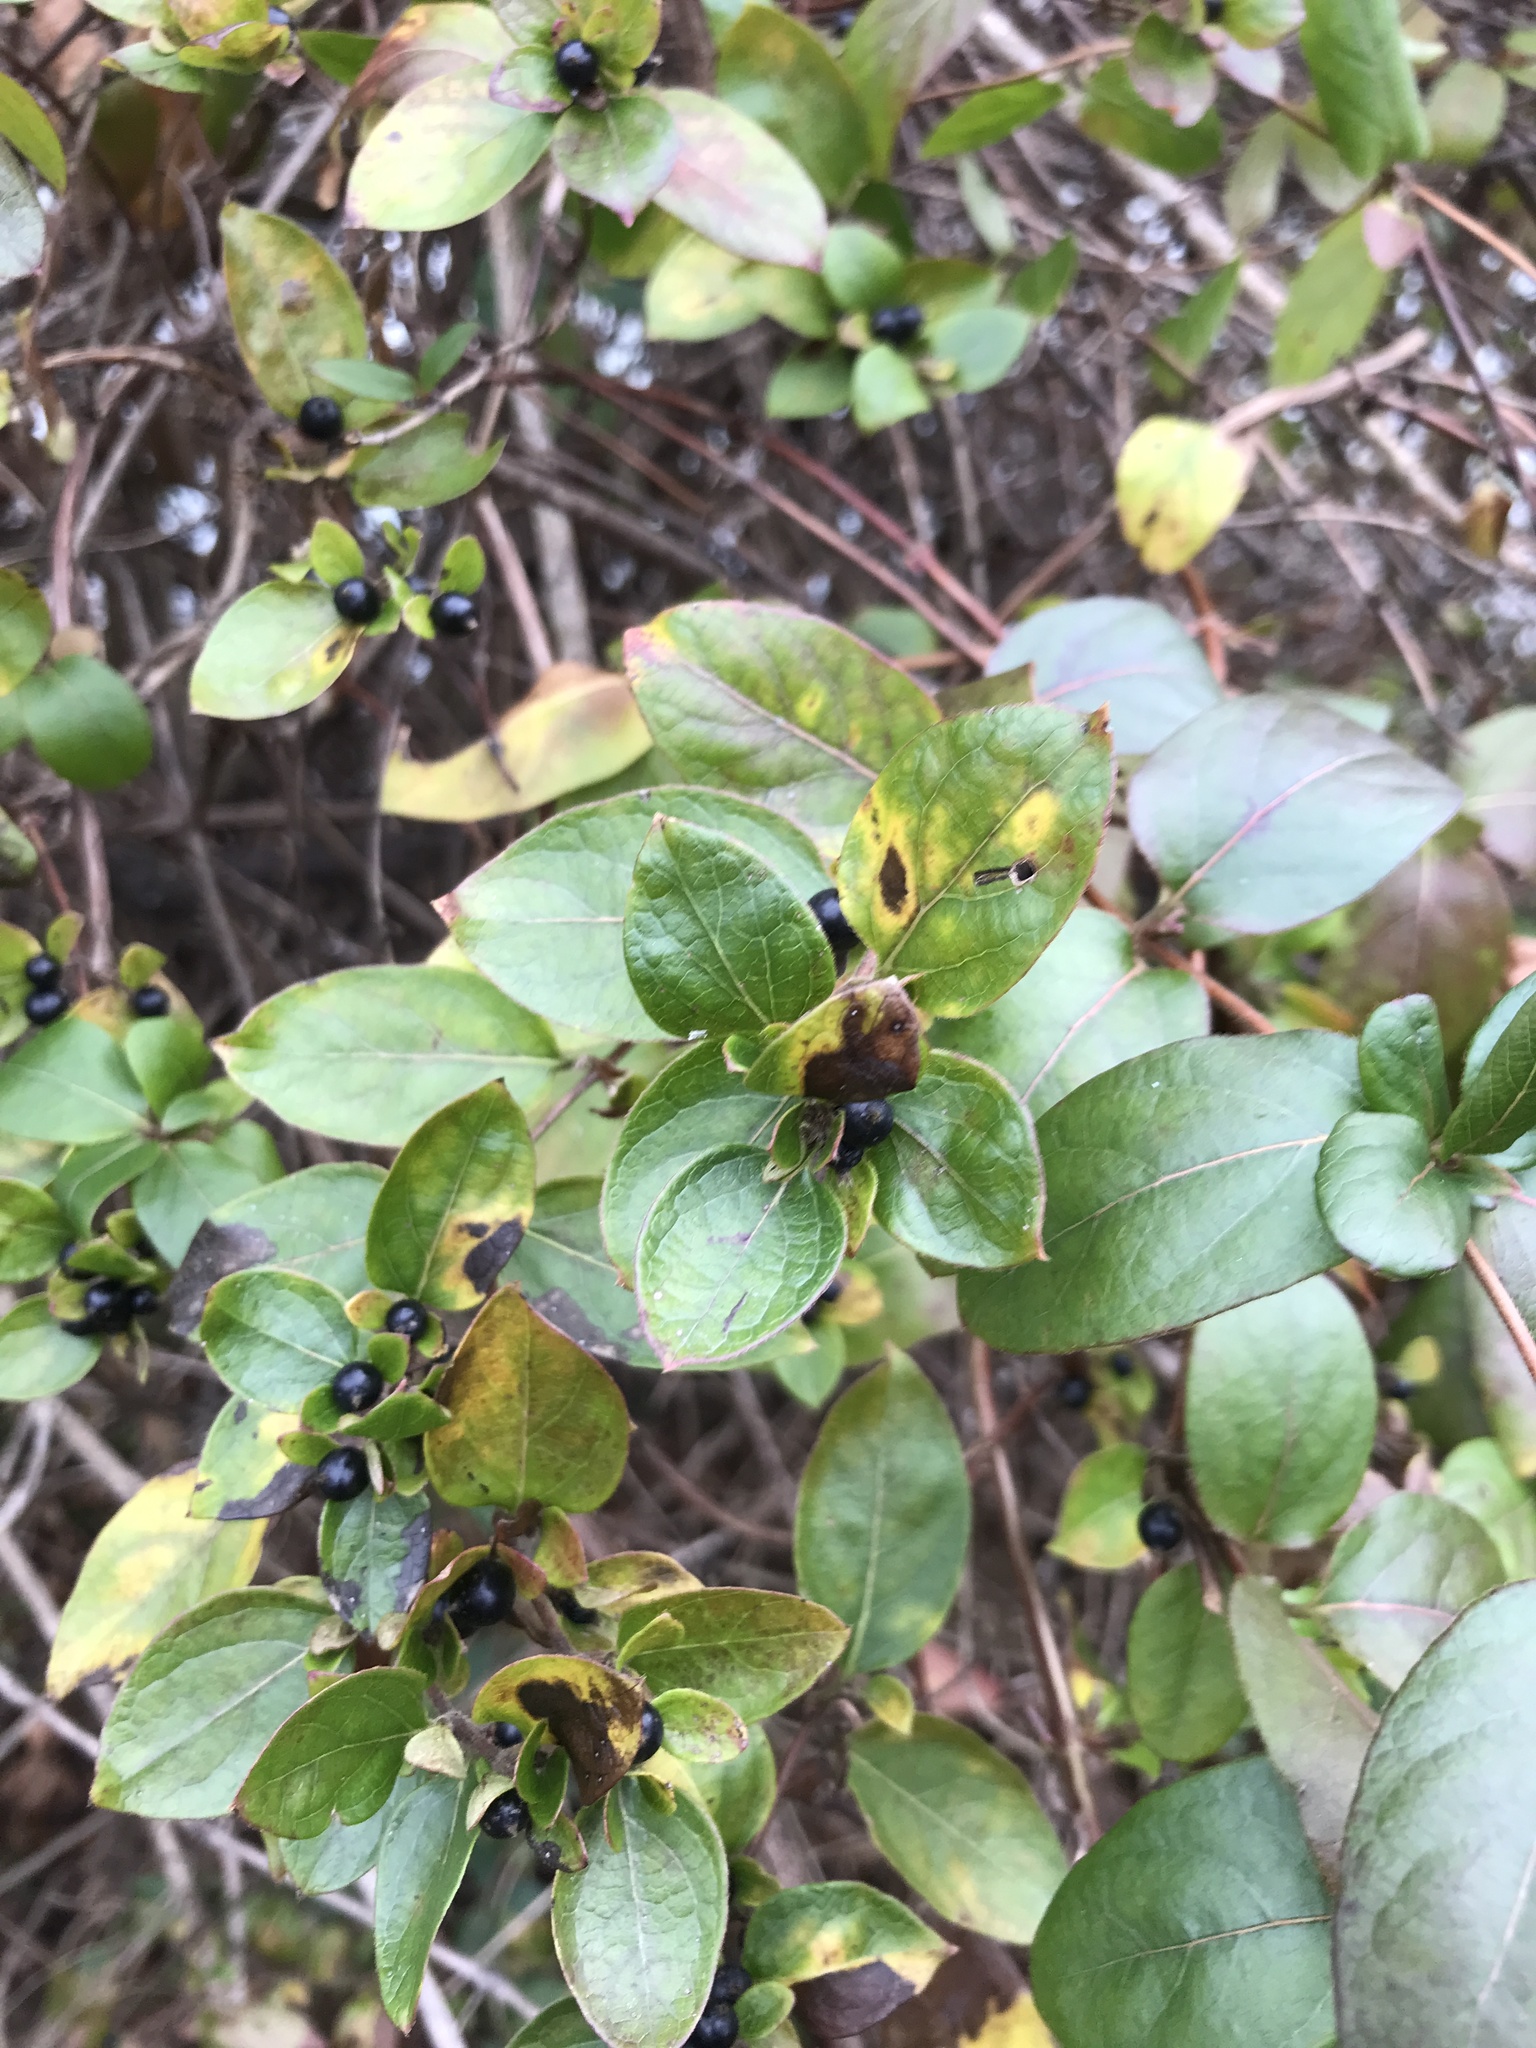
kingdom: Plantae
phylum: Tracheophyta
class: Magnoliopsida
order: Dipsacales
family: Caprifoliaceae
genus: Lonicera
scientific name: Lonicera japonica
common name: Japanese honeysuckle
